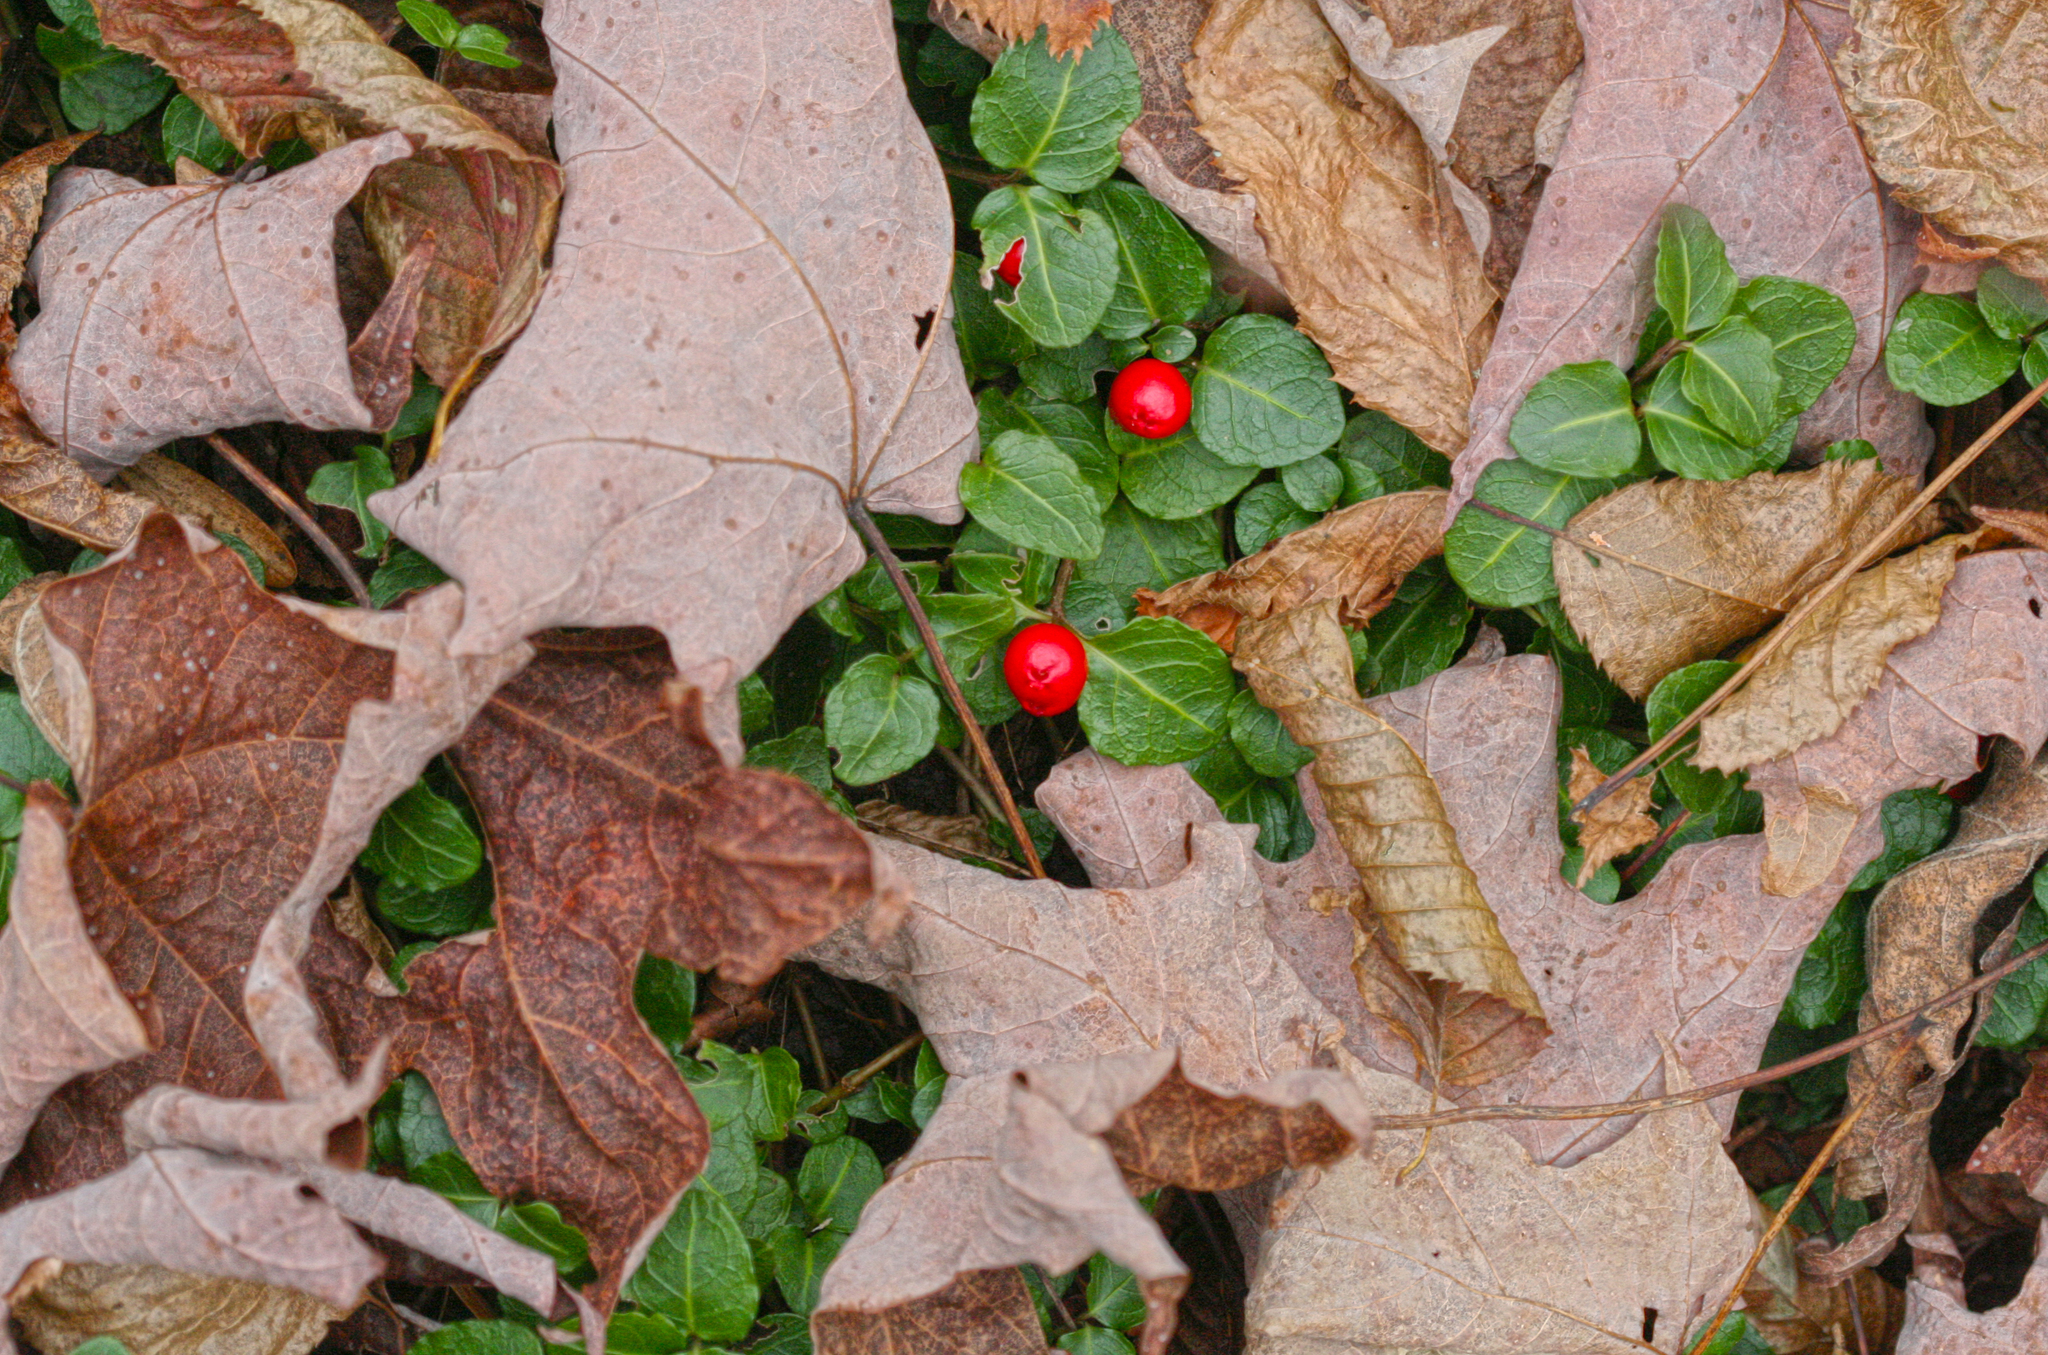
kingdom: Plantae
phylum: Tracheophyta
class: Magnoliopsida
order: Gentianales
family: Rubiaceae
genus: Mitchella
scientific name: Mitchella repens
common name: Partridge-berry
